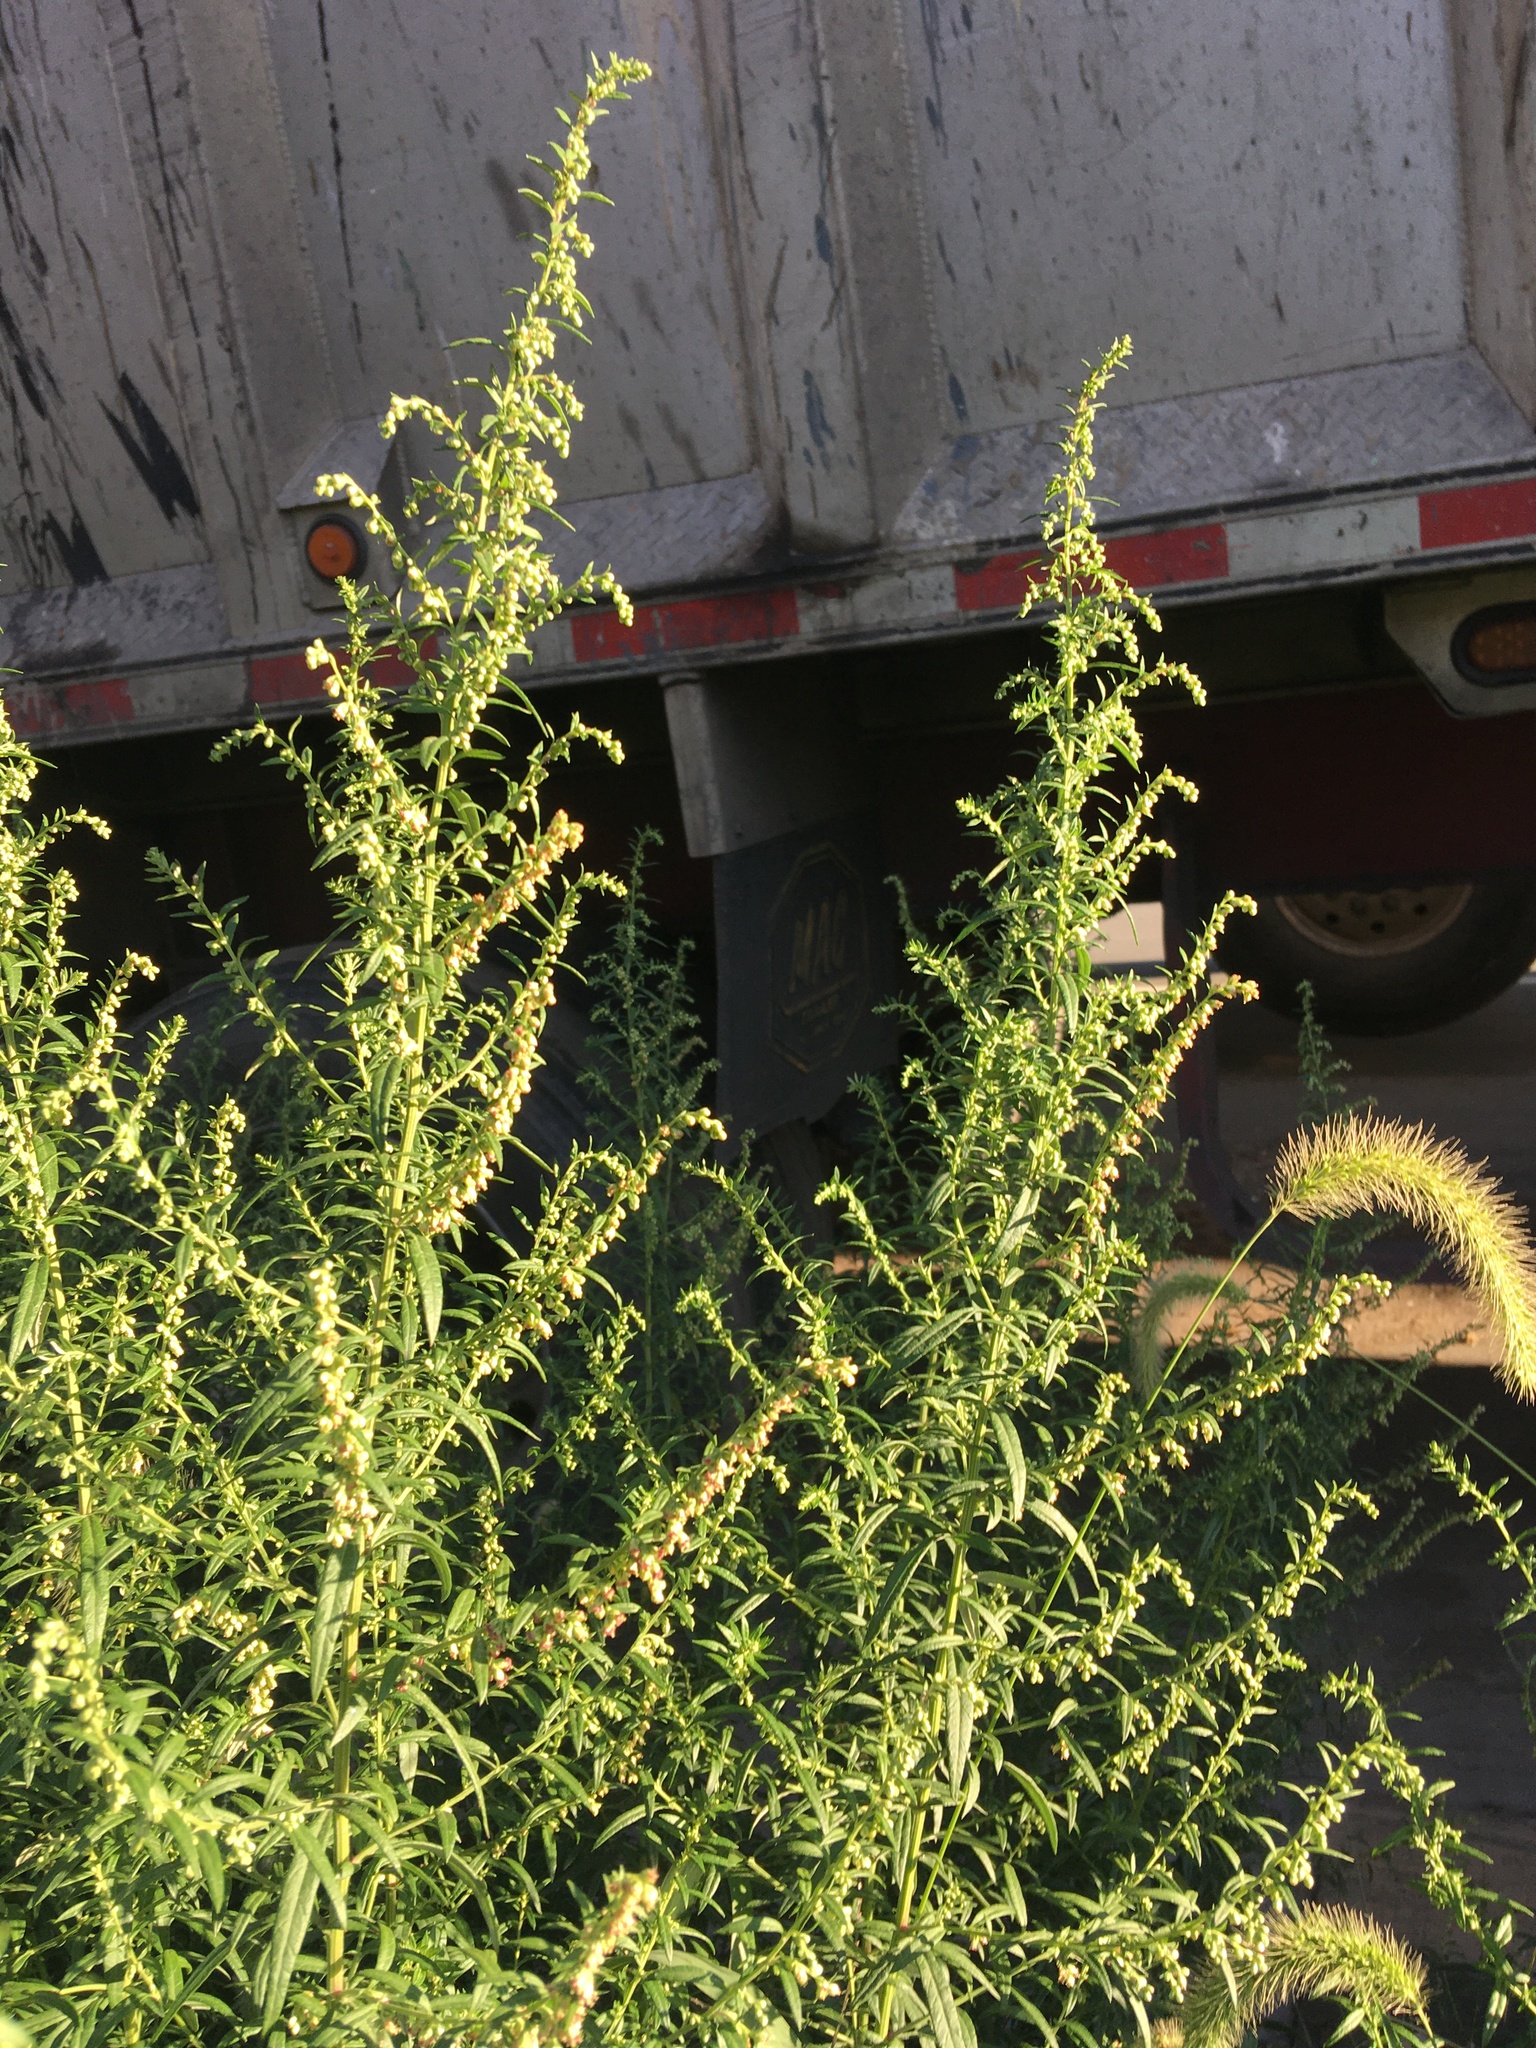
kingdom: Plantae
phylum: Tracheophyta
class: Magnoliopsida
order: Asterales
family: Asteraceae
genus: Artemisia
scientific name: Artemisia vulgaris
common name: Mugwort
